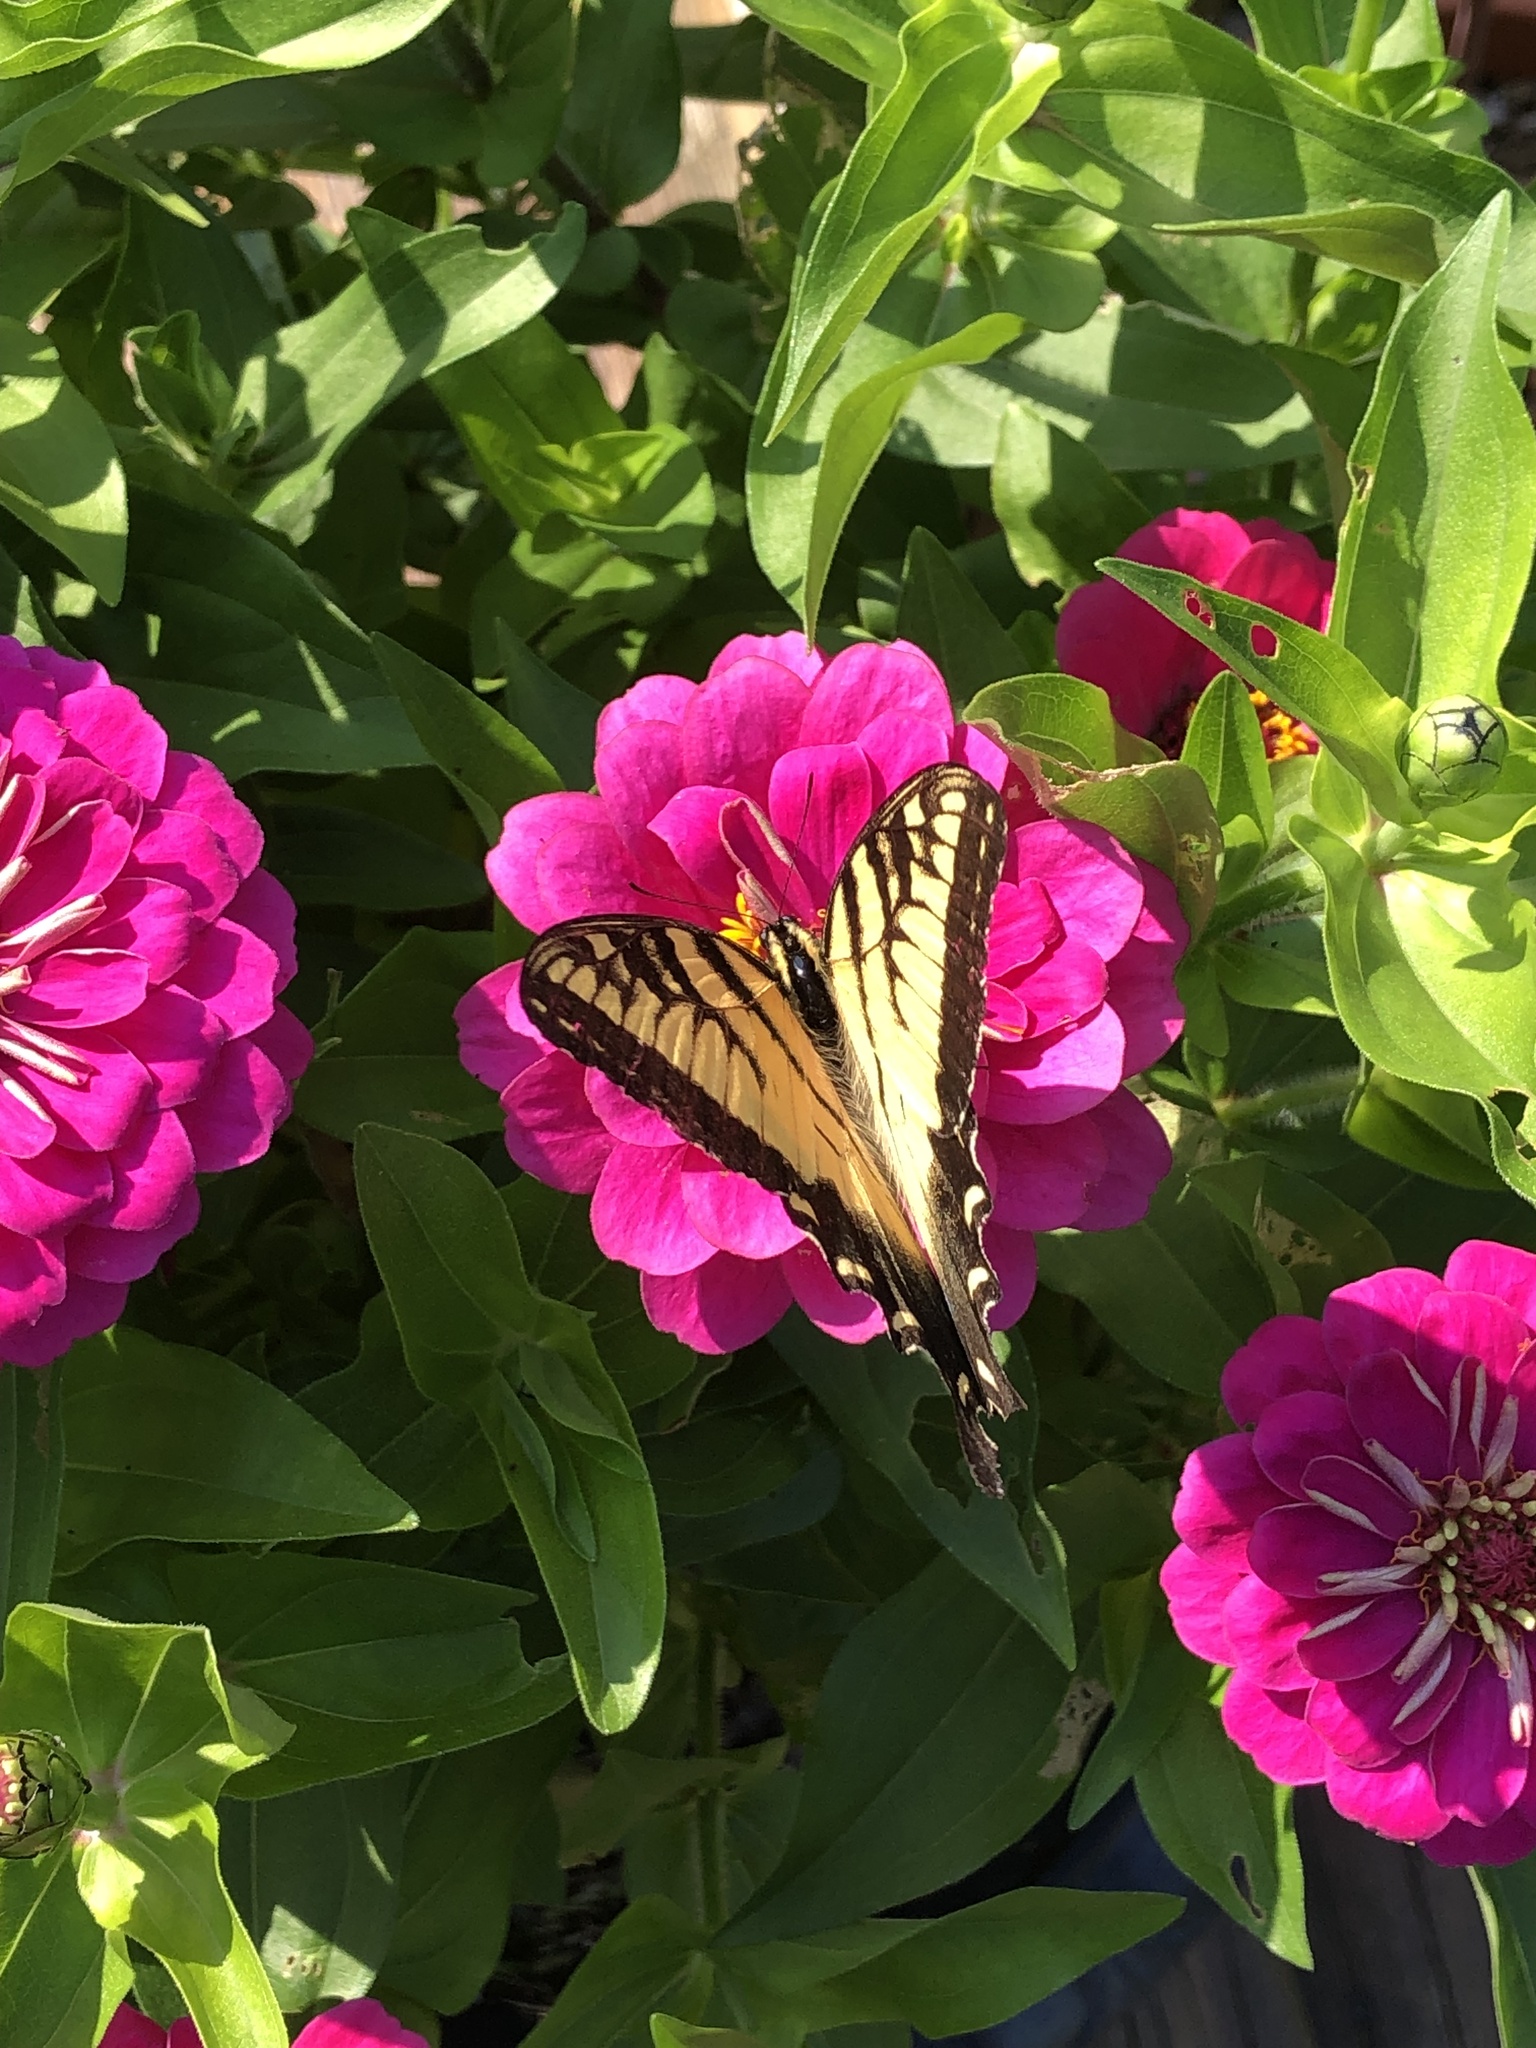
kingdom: Animalia
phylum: Arthropoda
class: Insecta
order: Lepidoptera
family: Papilionidae
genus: Papilio
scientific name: Papilio glaucus
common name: Tiger swallowtail
